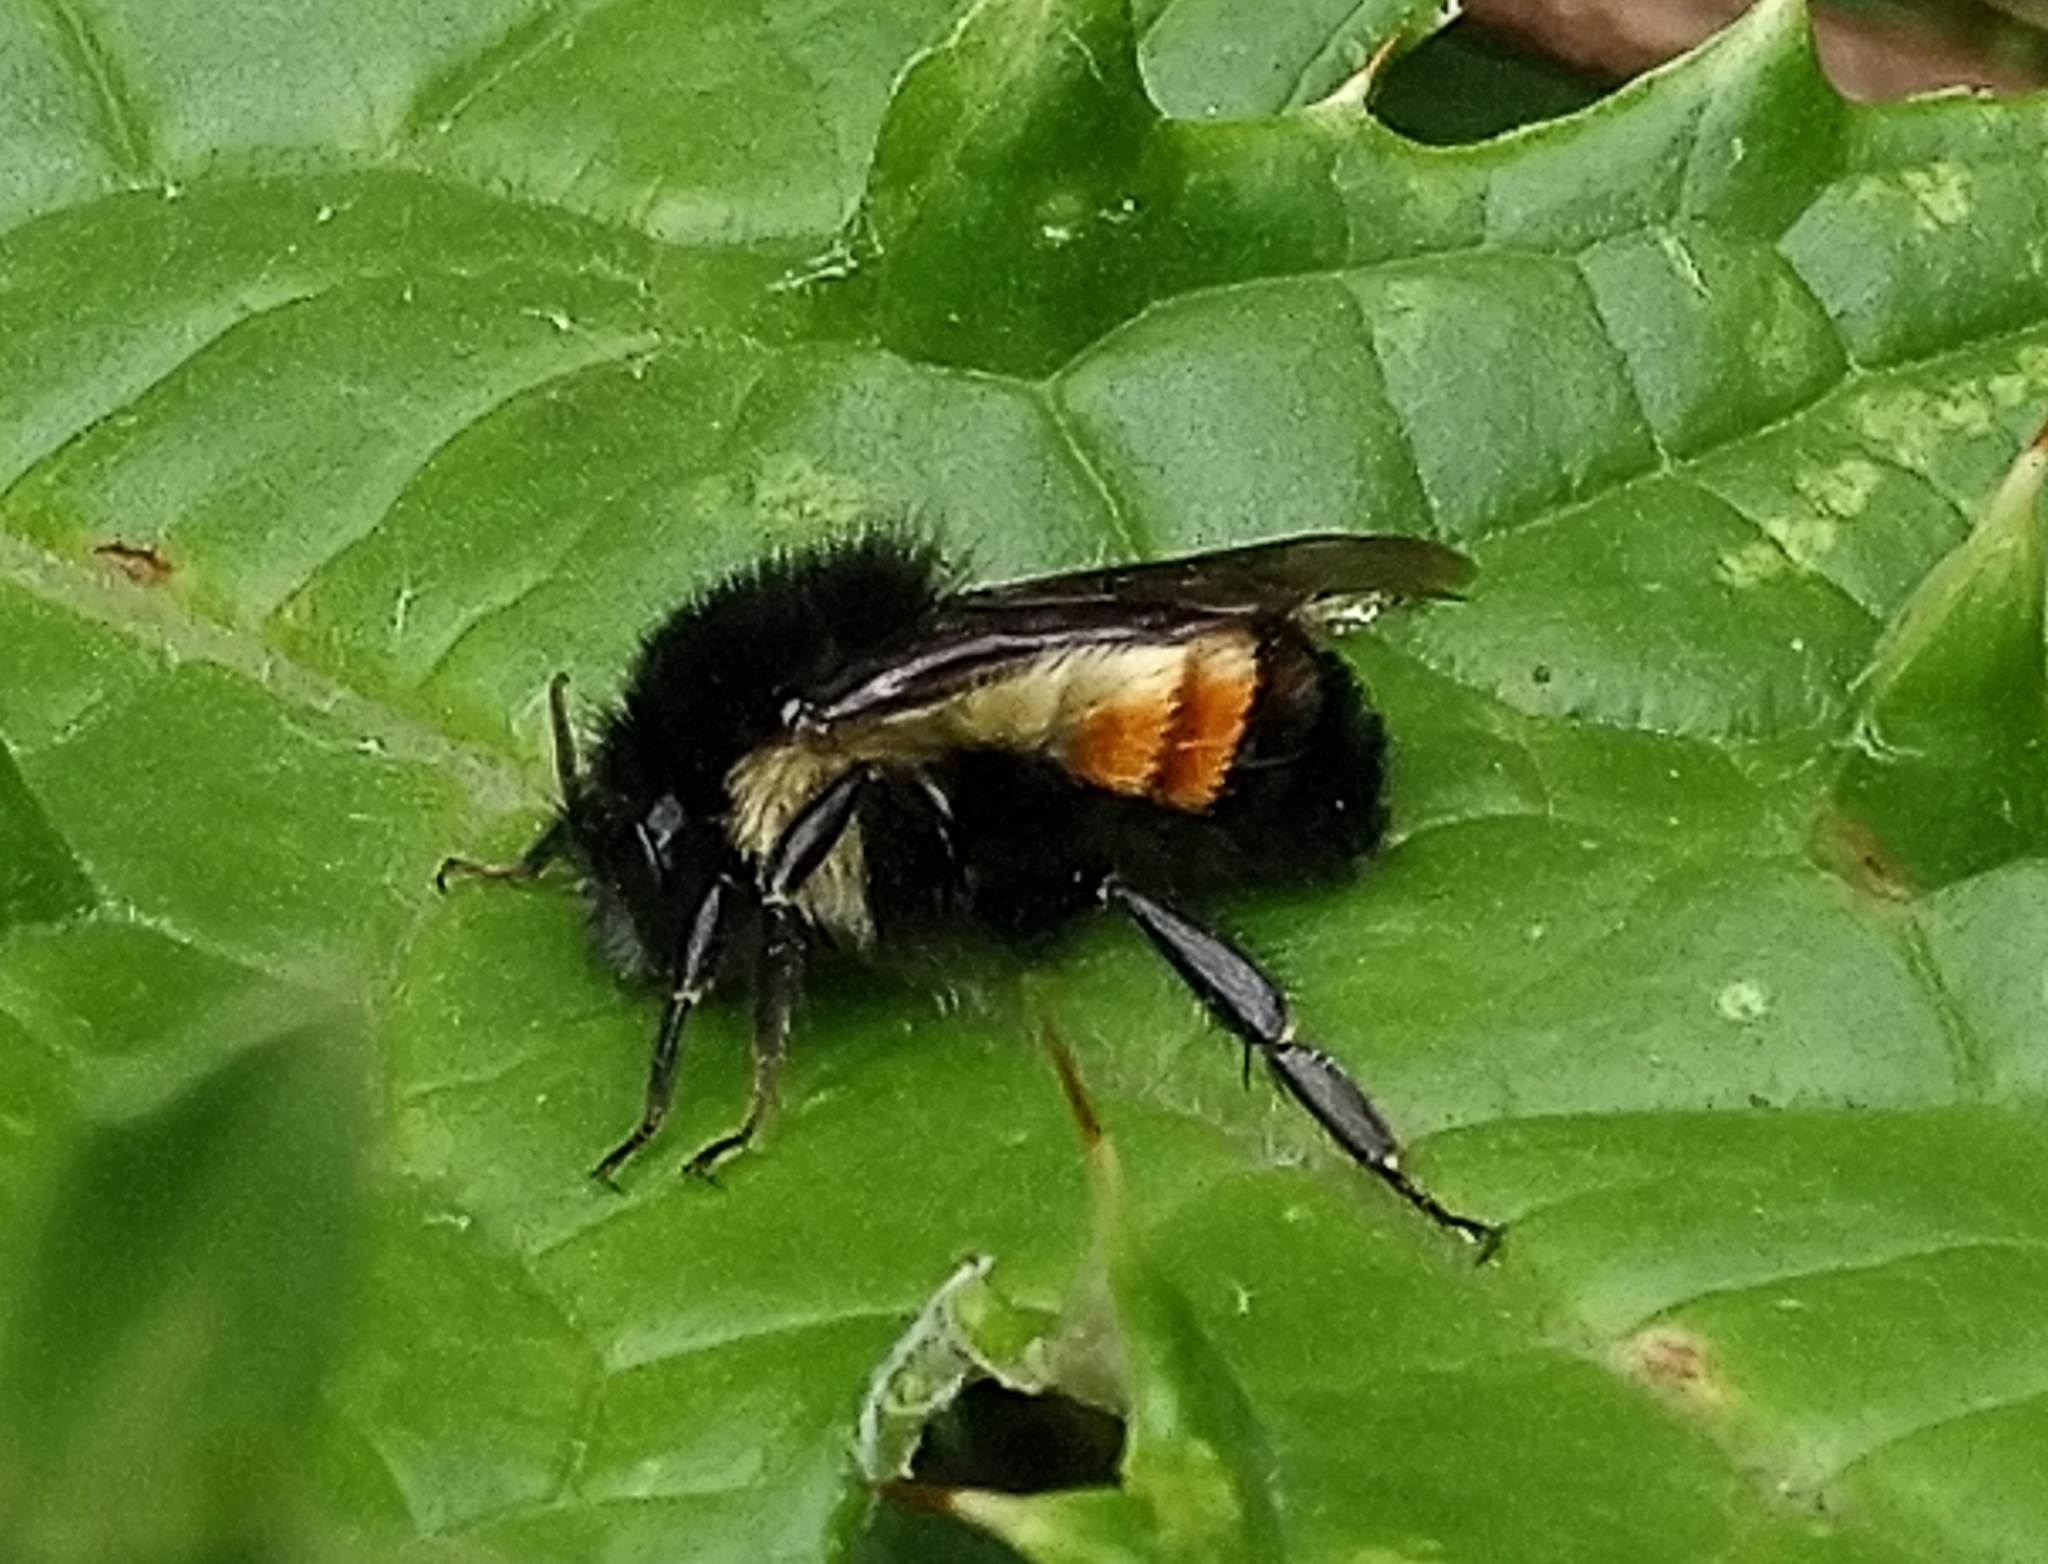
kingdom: Animalia
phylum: Arthropoda
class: Insecta
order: Hymenoptera
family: Apidae
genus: Bombus
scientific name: Bombus ephippiatus
